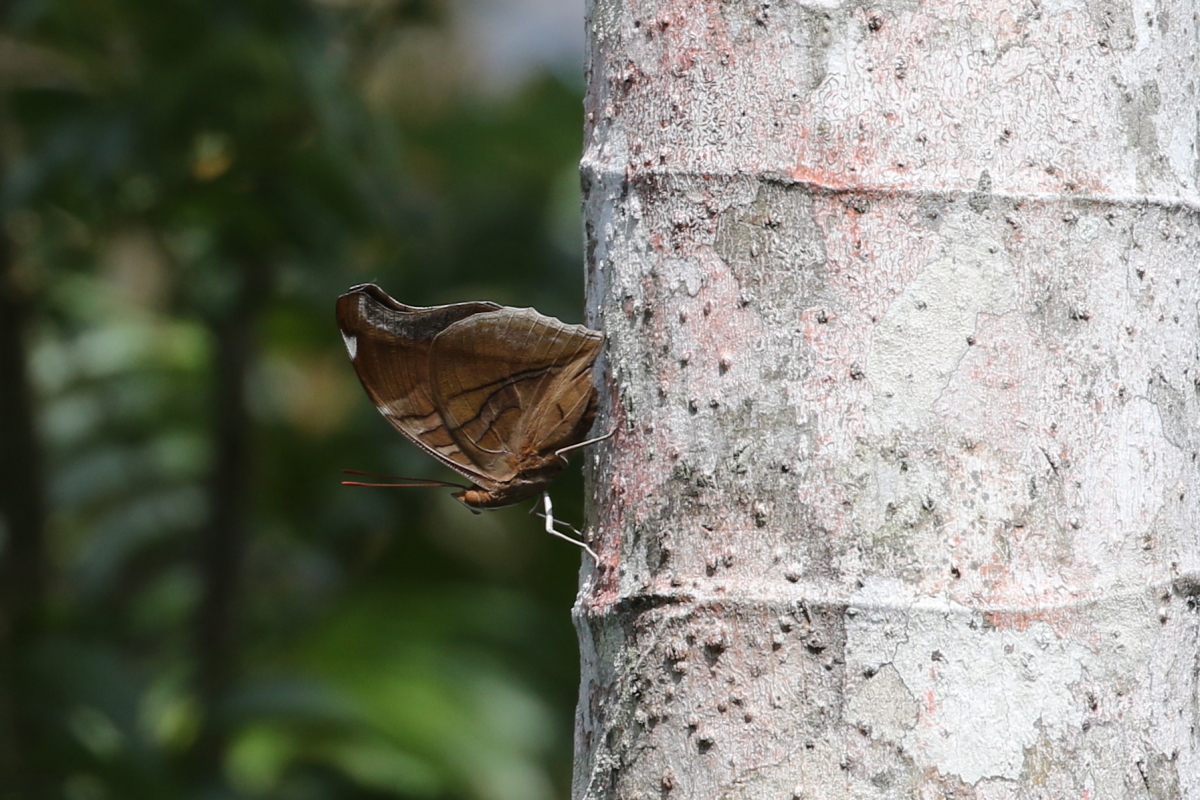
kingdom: Animalia
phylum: Arthropoda
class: Insecta
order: Lepidoptera
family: Nymphalidae
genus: Historis
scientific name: Historis odius
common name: Orion cecropian
